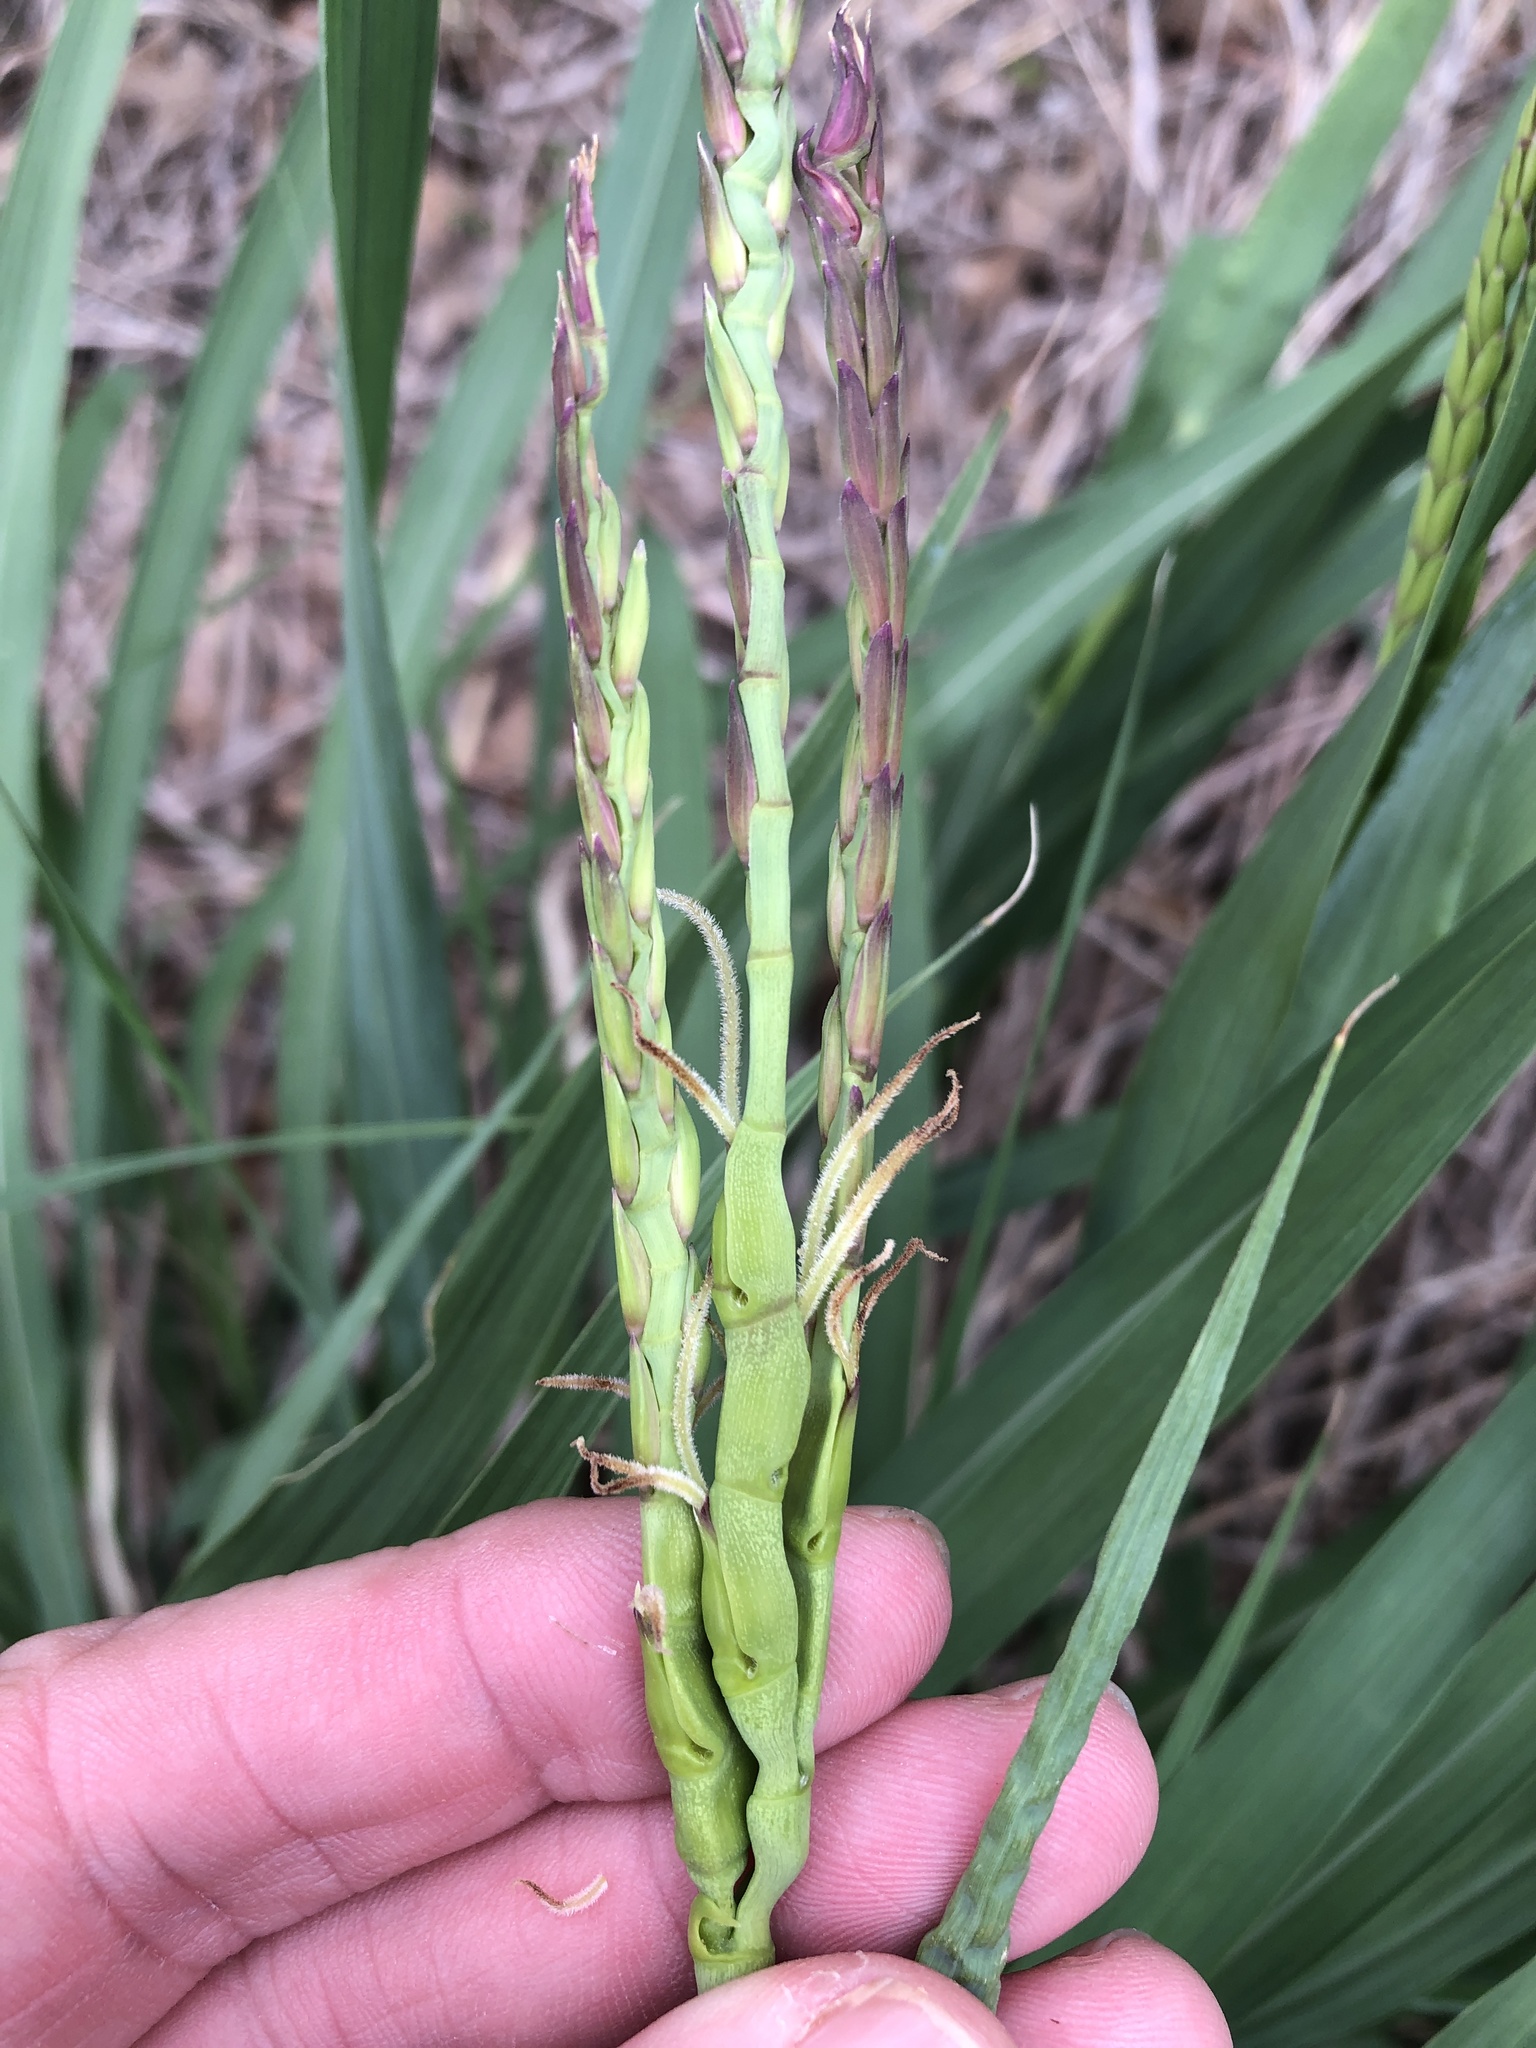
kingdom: Plantae
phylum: Tracheophyta
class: Liliopsida
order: Poales
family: Poaceae
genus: Tripsacum
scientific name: Tripsacum dactyloides
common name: Buffalo-grass
